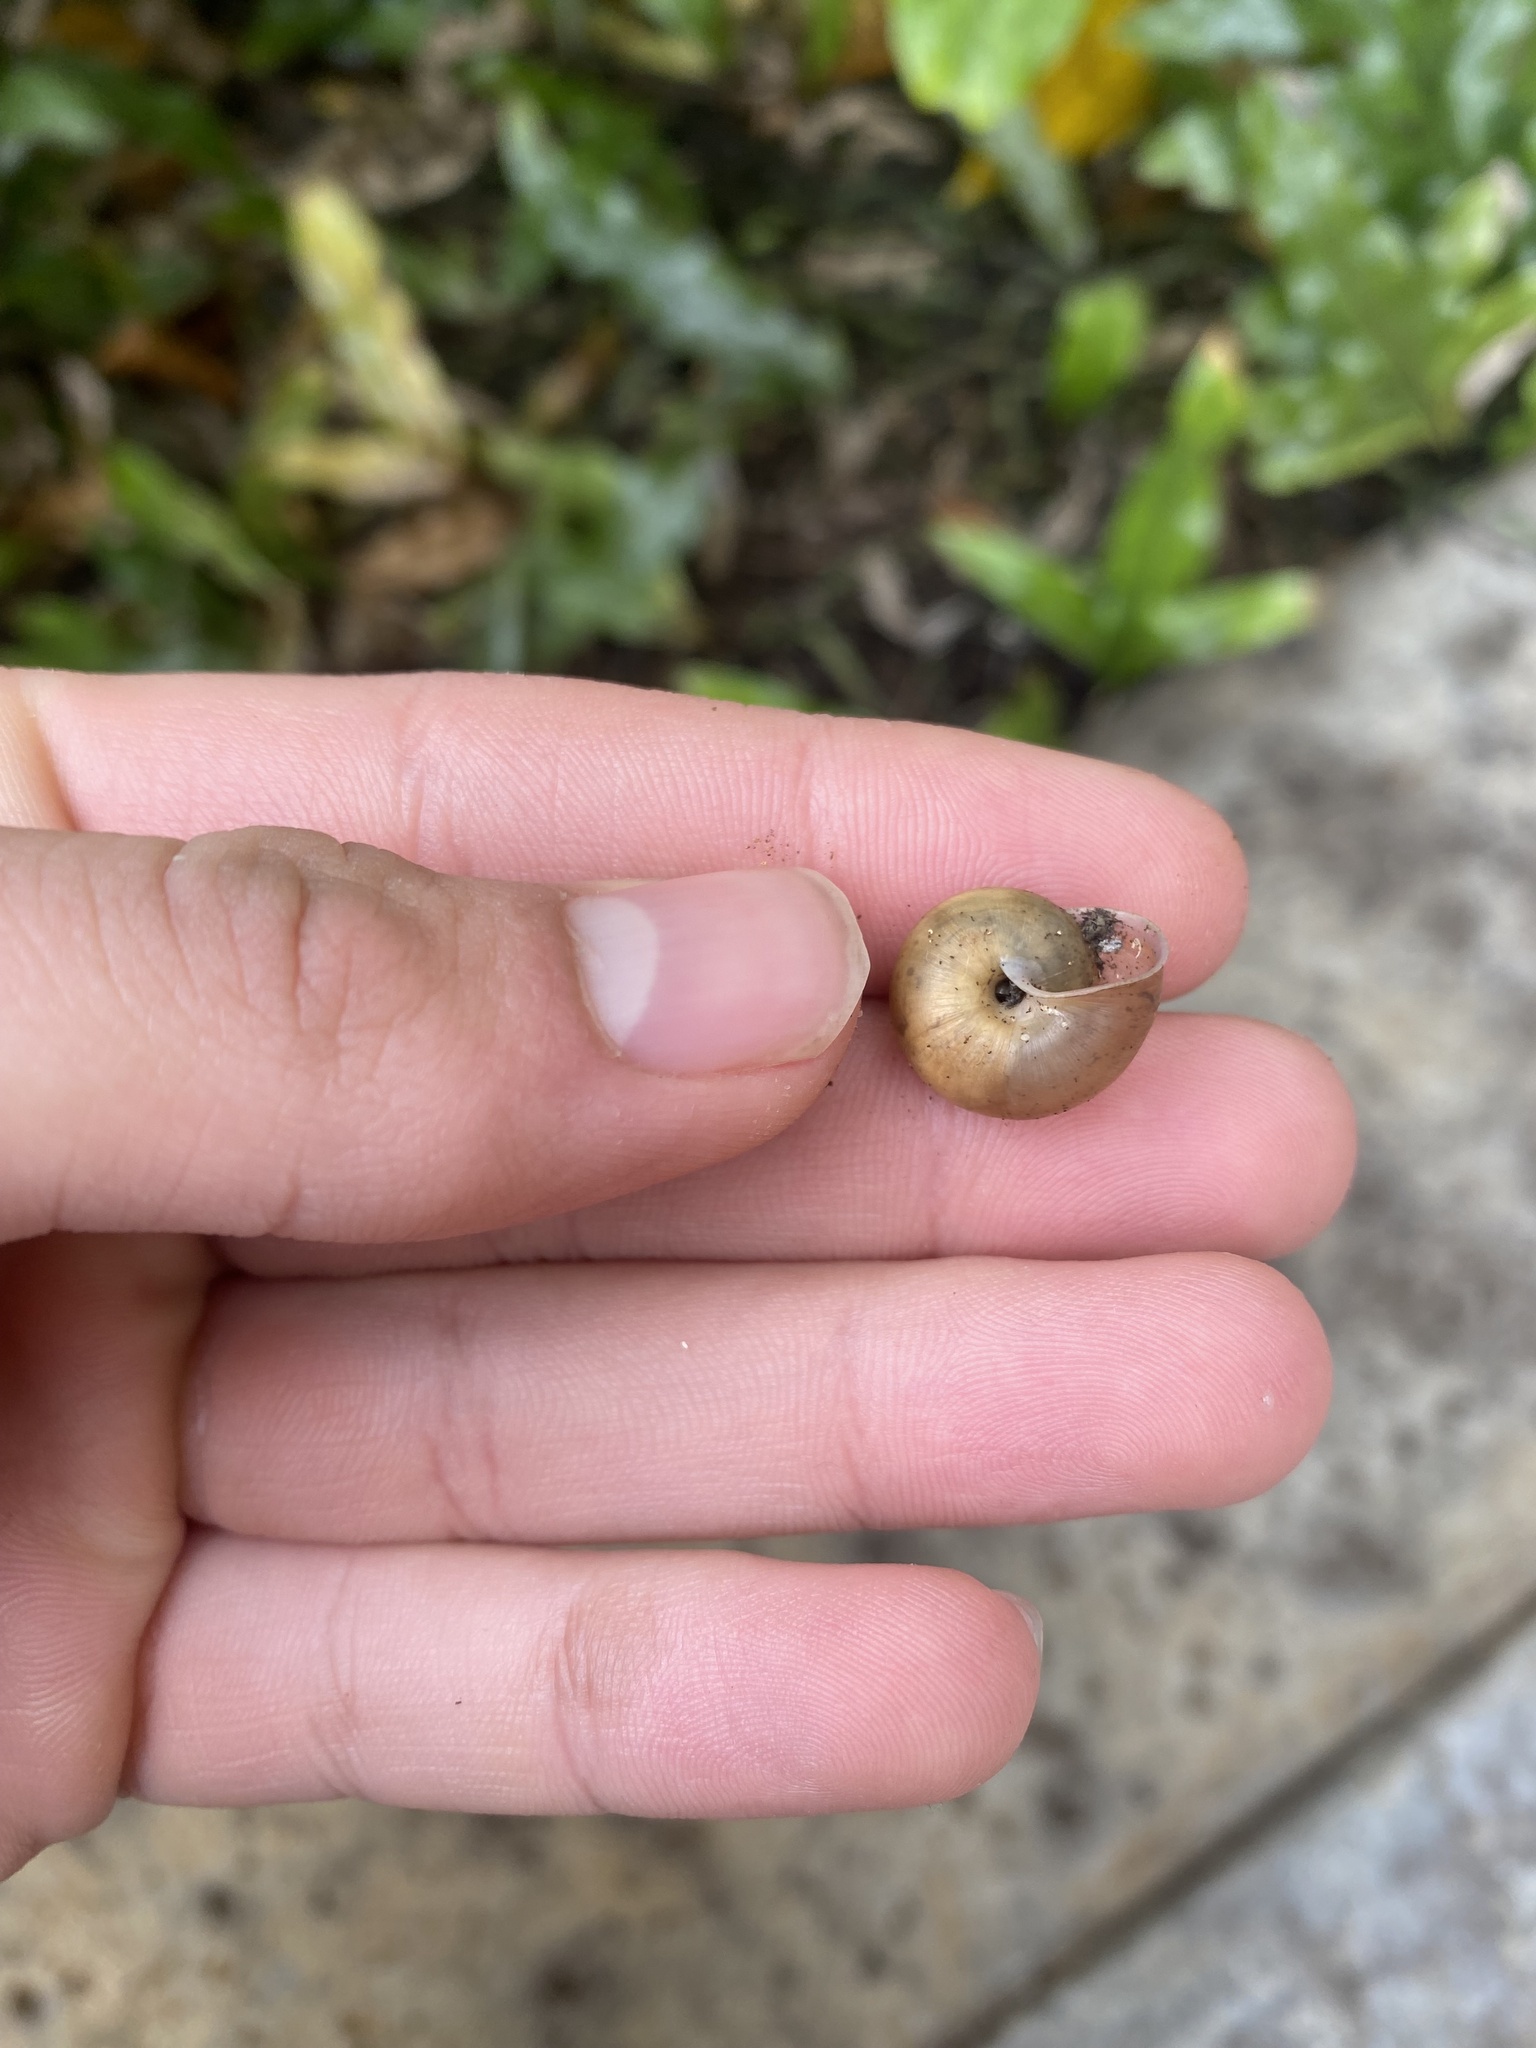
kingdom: Animalia
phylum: Mollusca
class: Gastropoda
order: Stylommatophora
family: Camaenidae
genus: Bradybaena
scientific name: Bradybaena similaris
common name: Asian trampsnail
